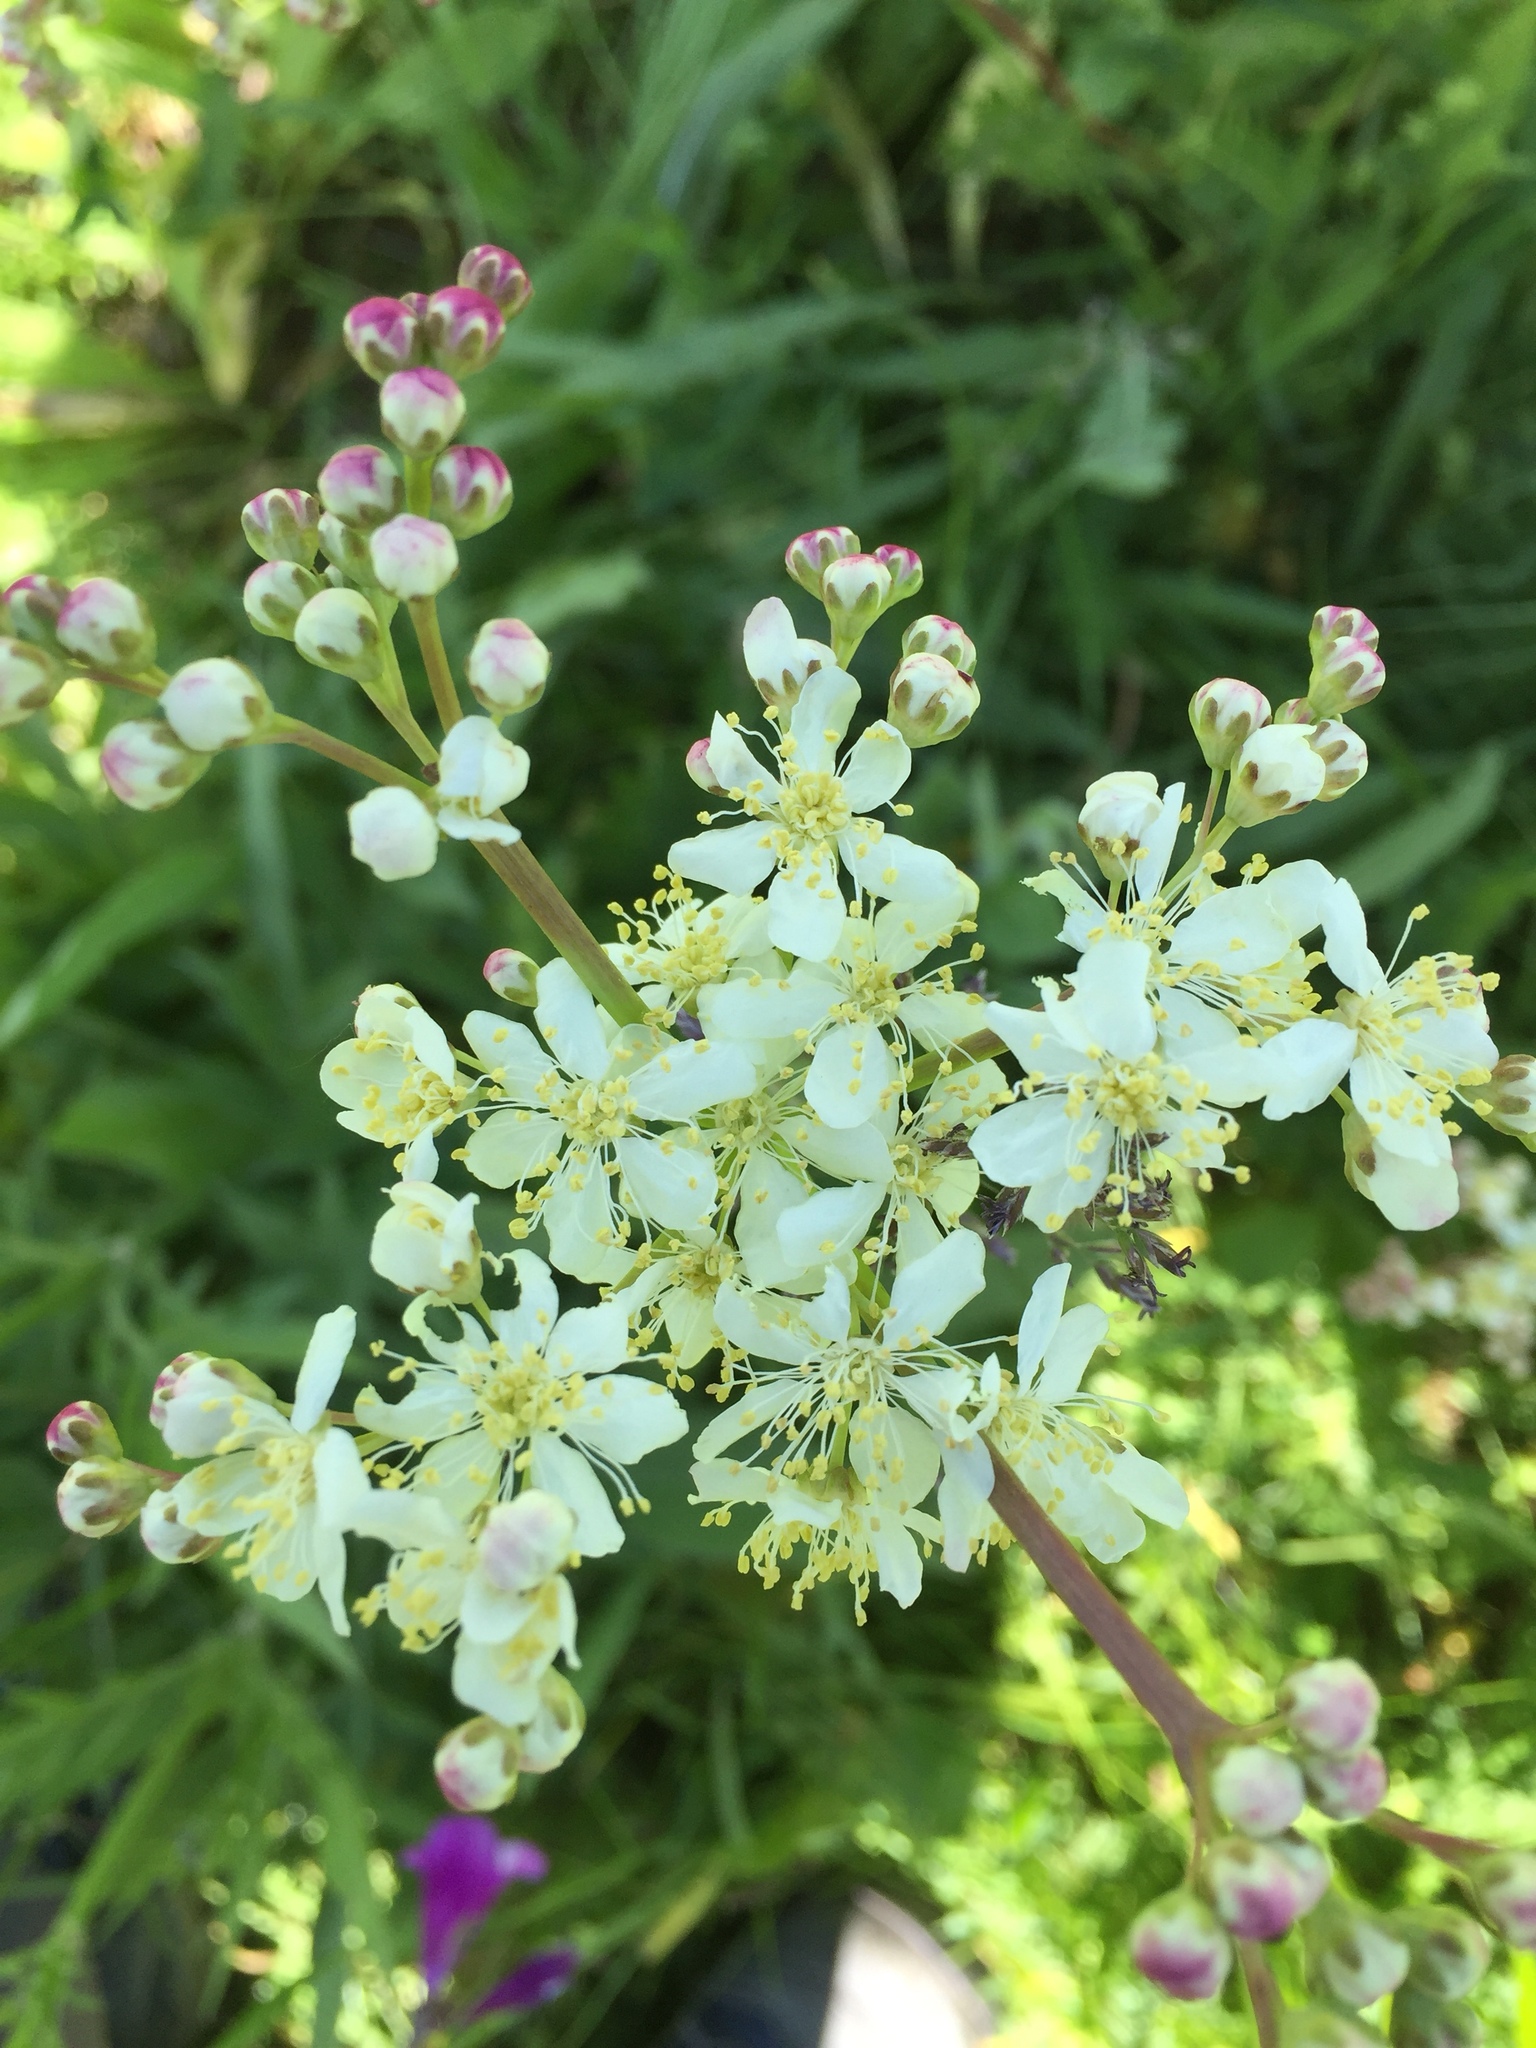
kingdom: Plantae
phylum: Tracheophyta
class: Magnoliopsida
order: Rosales
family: Rosaceae
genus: Filipendula
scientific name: Filipendula vulgaris
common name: Dropwort
